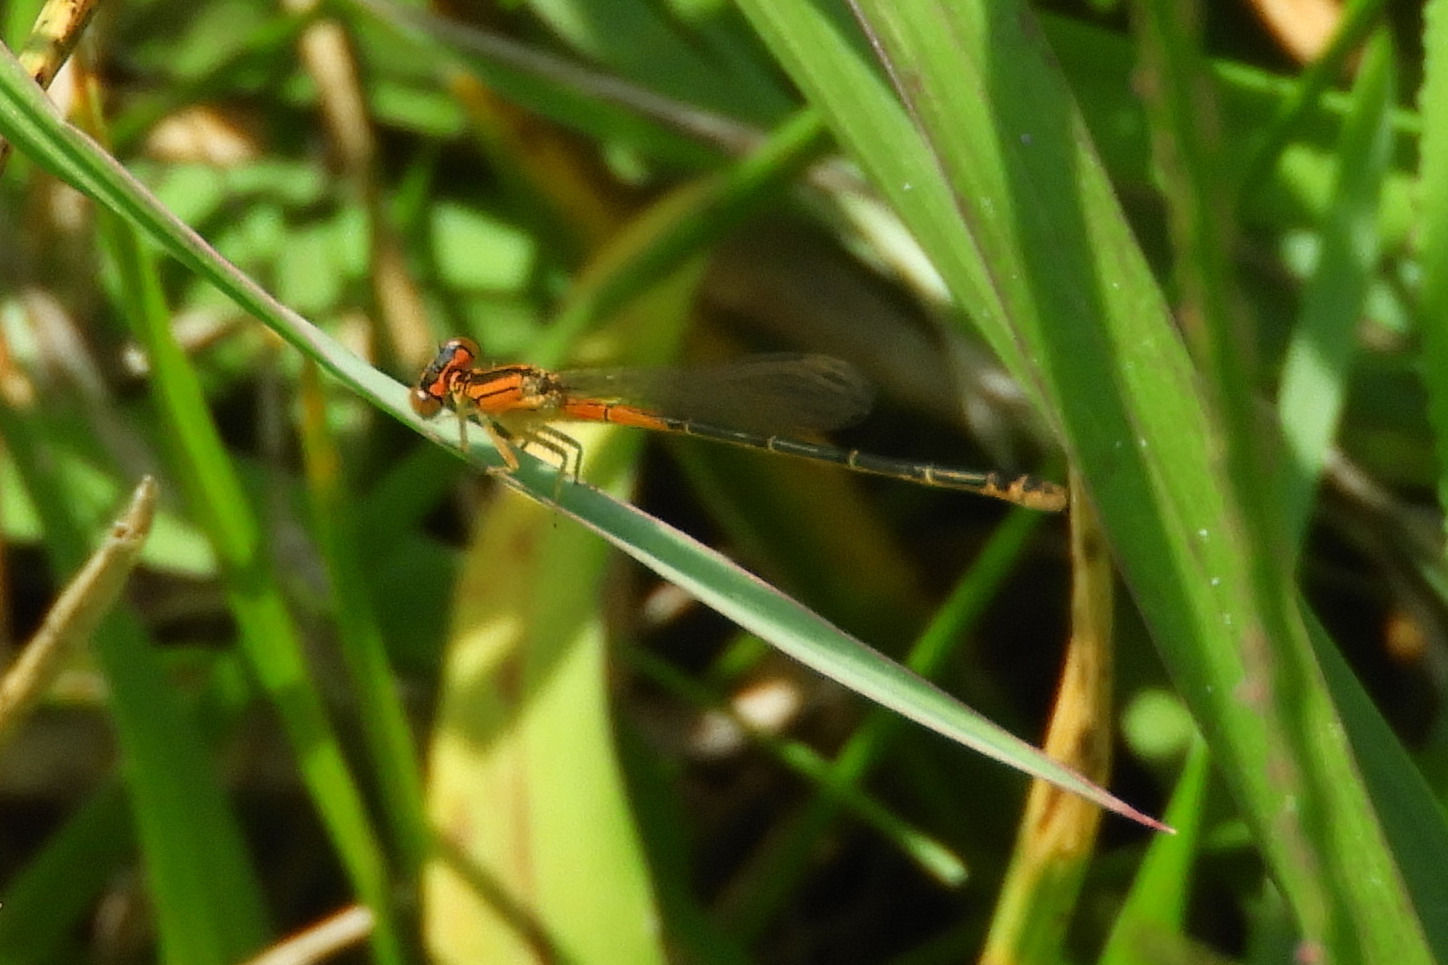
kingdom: Animalia
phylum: Arthropoda
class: Insecta
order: Odonata
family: Coenagrionidae
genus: Ischnura
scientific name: Ischnura verticalis
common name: Eastern forktail
